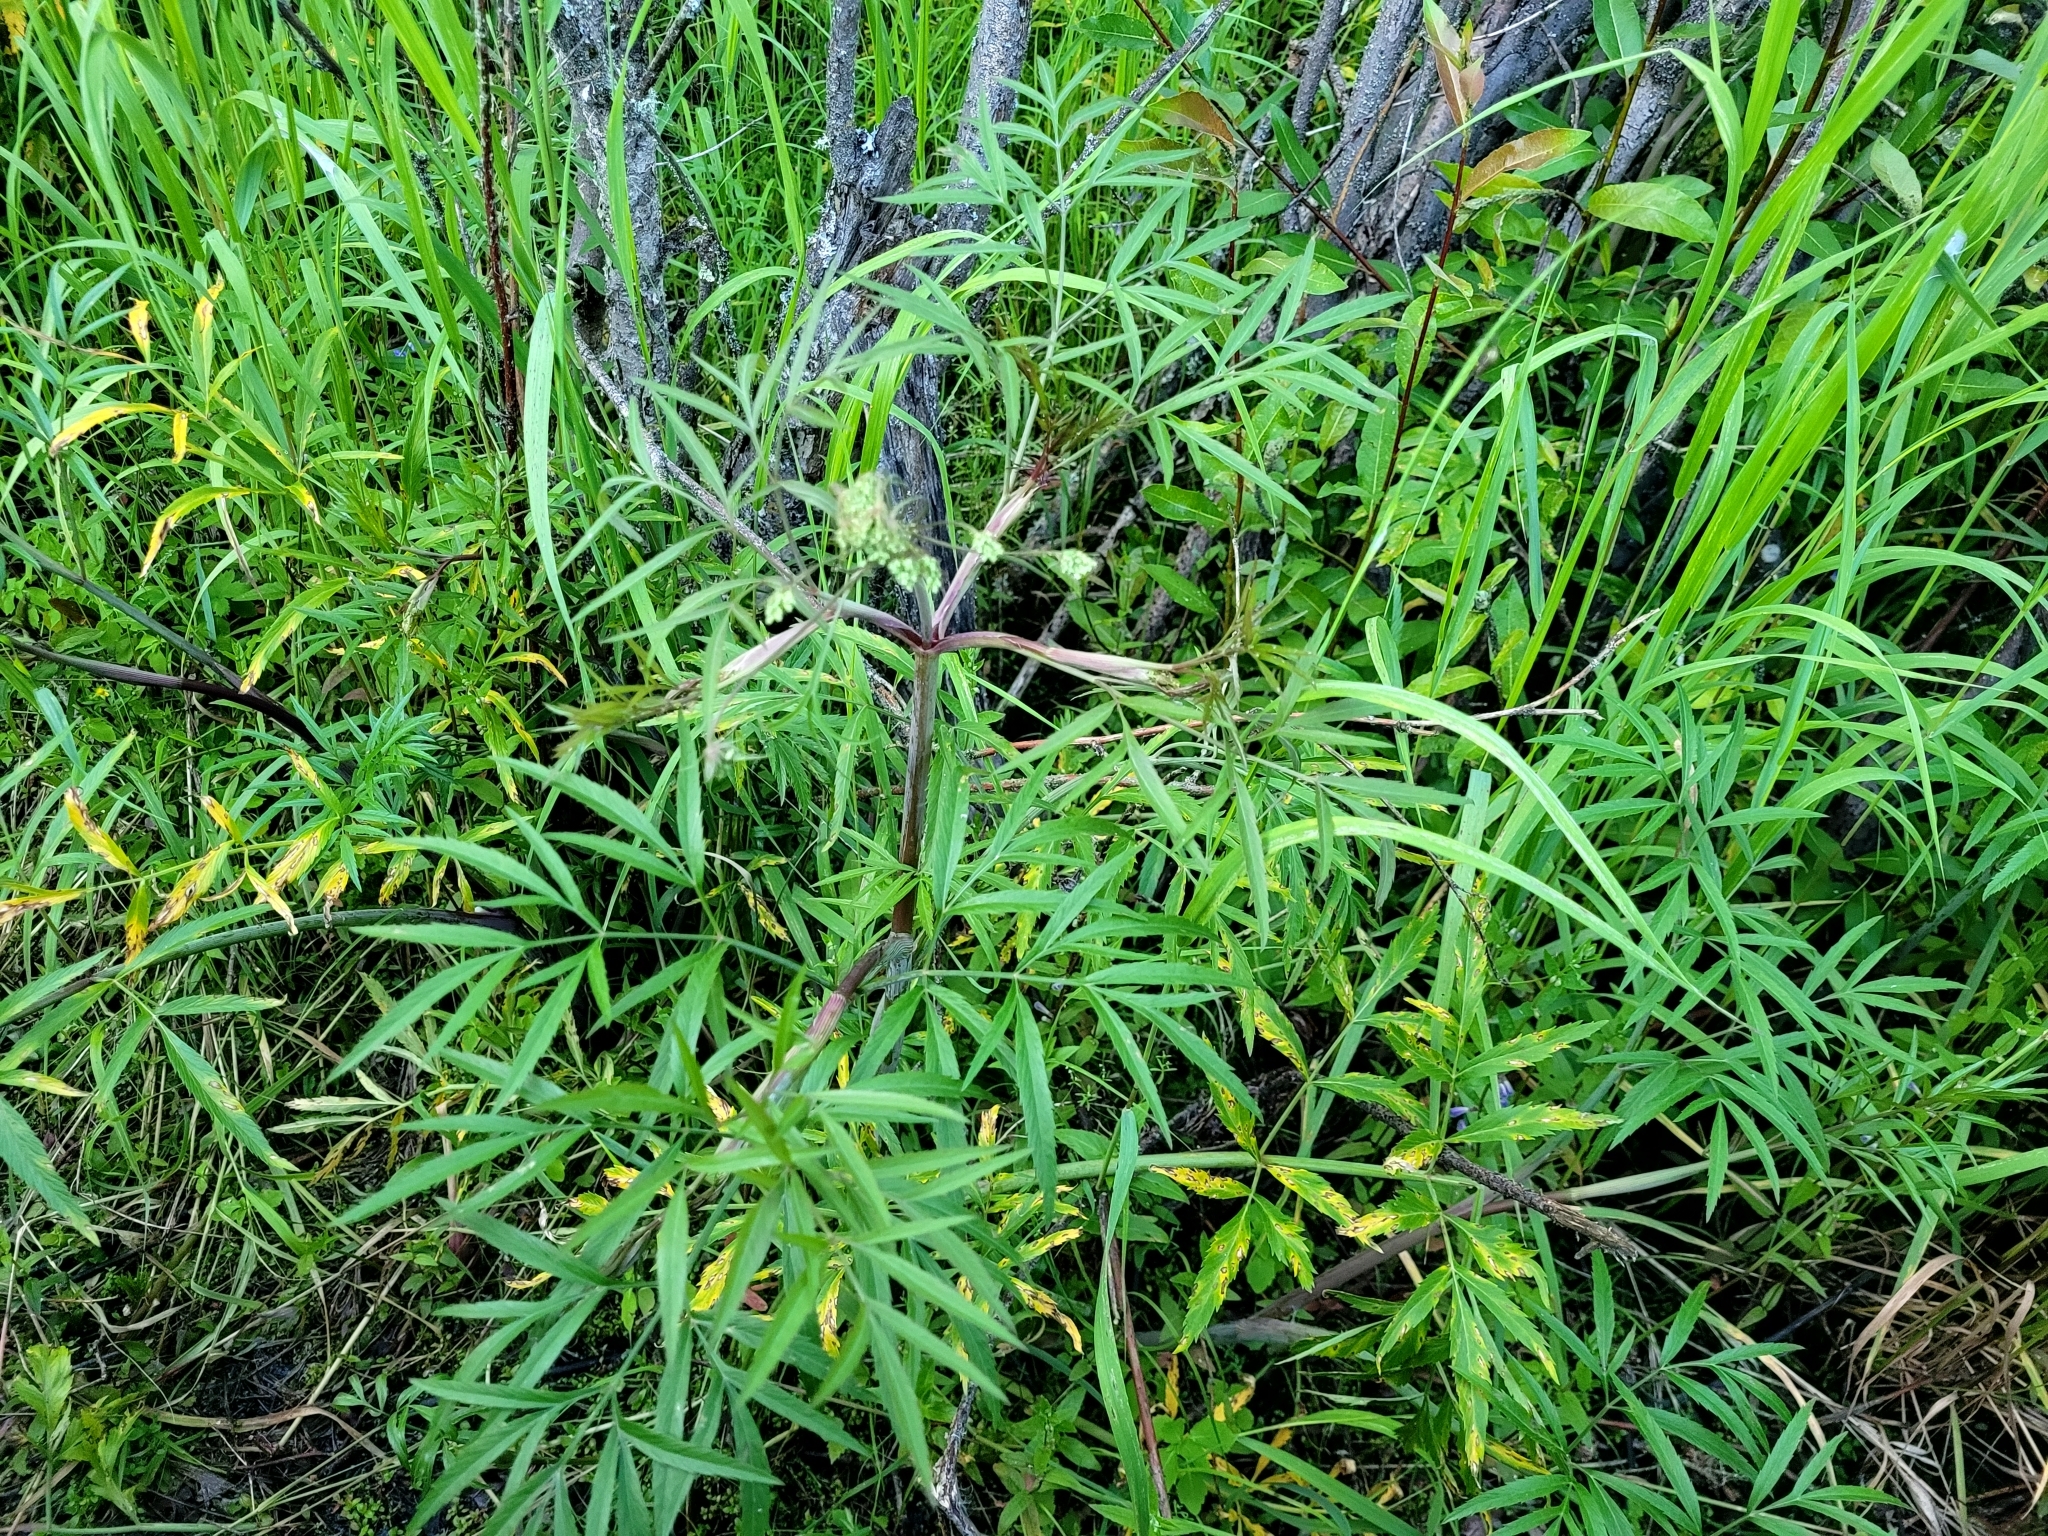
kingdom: Plantae
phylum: Tracheophyta
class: Magnoliopsida
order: Apiales
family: Apiaceae
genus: Cicuta
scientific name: Cicuta maculata
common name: Spotted cowbane
